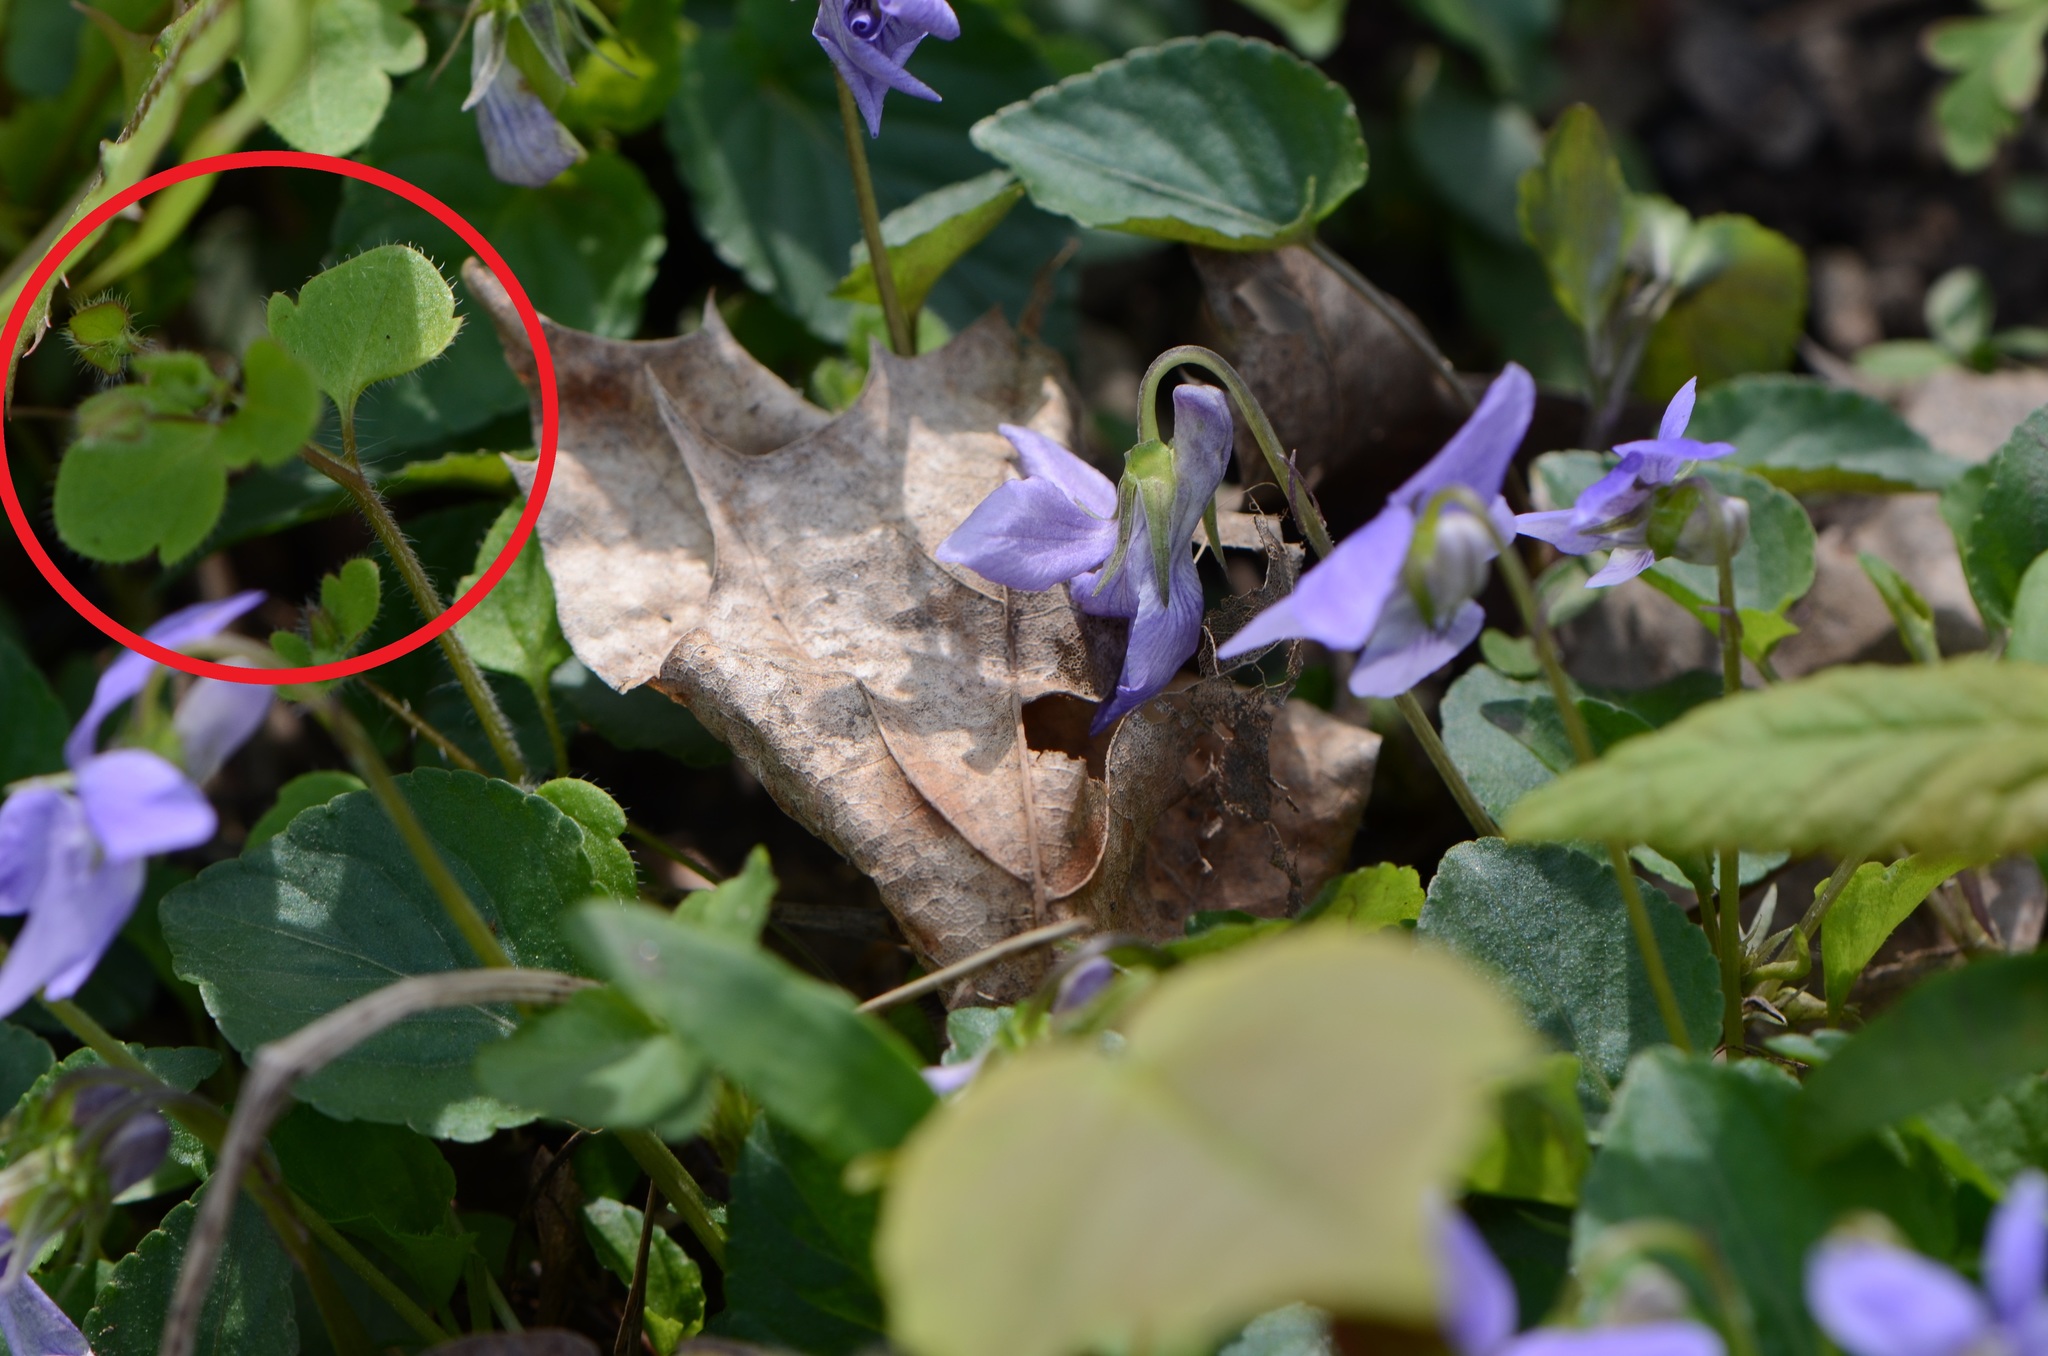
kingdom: Plantae
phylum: Tracheophyta
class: Magnoliopsida
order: Lamiales
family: Plantaginaceae
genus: Veronica
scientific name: Veronica sublobata
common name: False ivy-leaved speedwell
